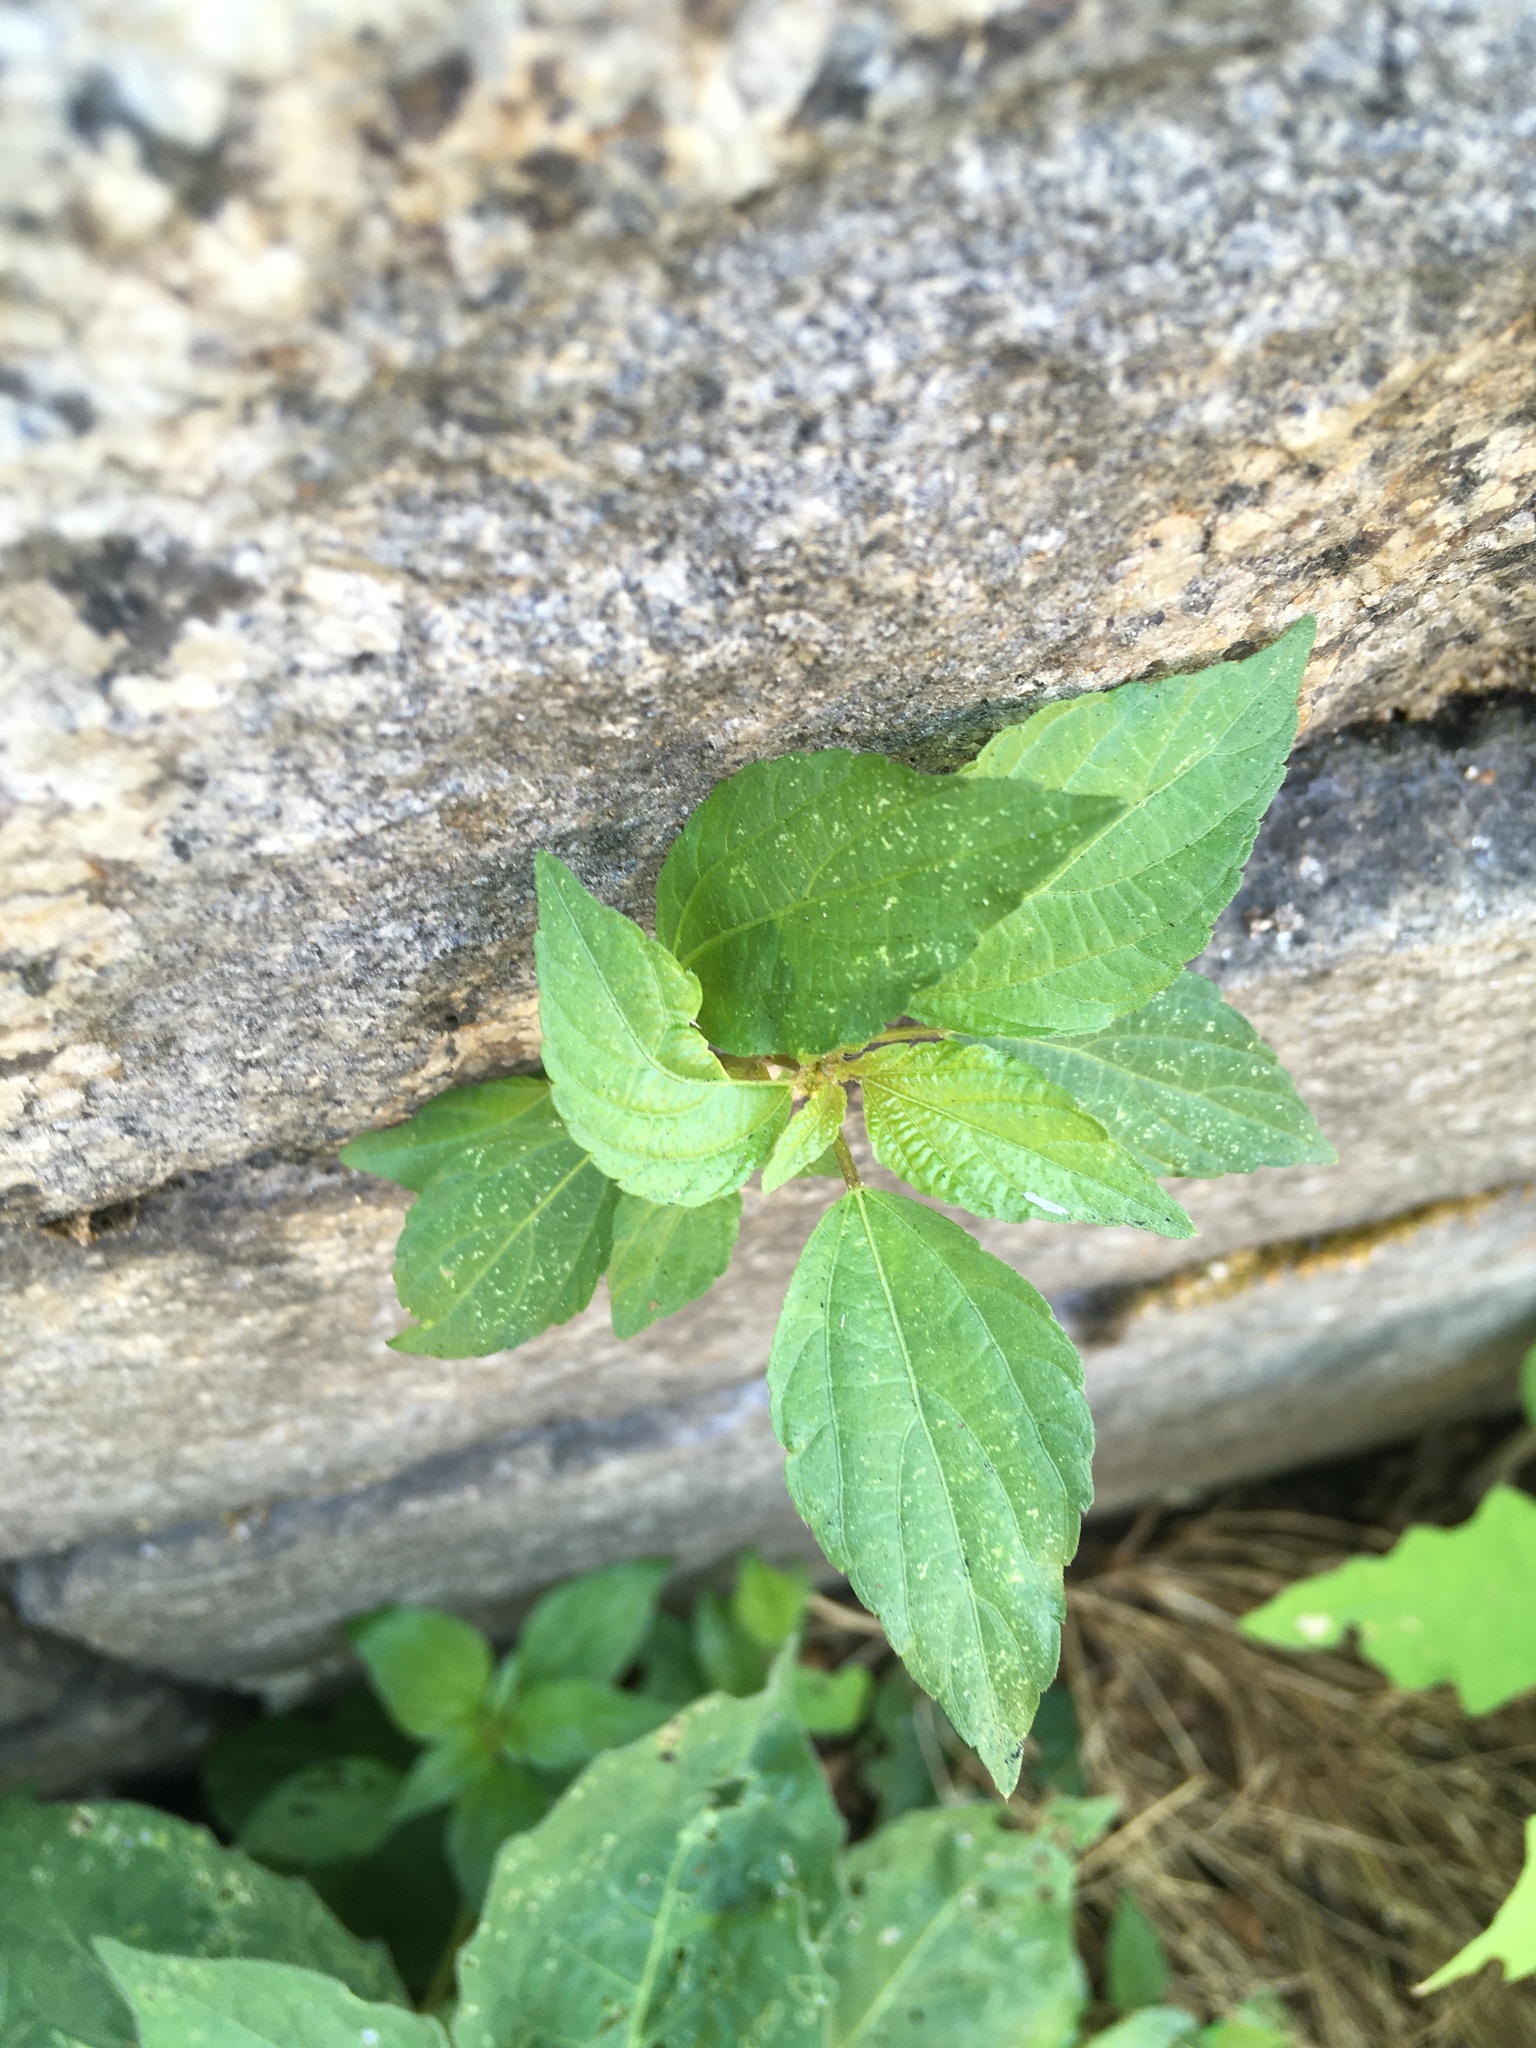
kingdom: Plantae
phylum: Tracheophyta
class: Magnoliopsida
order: Malpighiales
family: Euphorbiaceae
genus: Acalypha
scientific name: Acalypha rhomboidea
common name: Rhombic copperleaf
